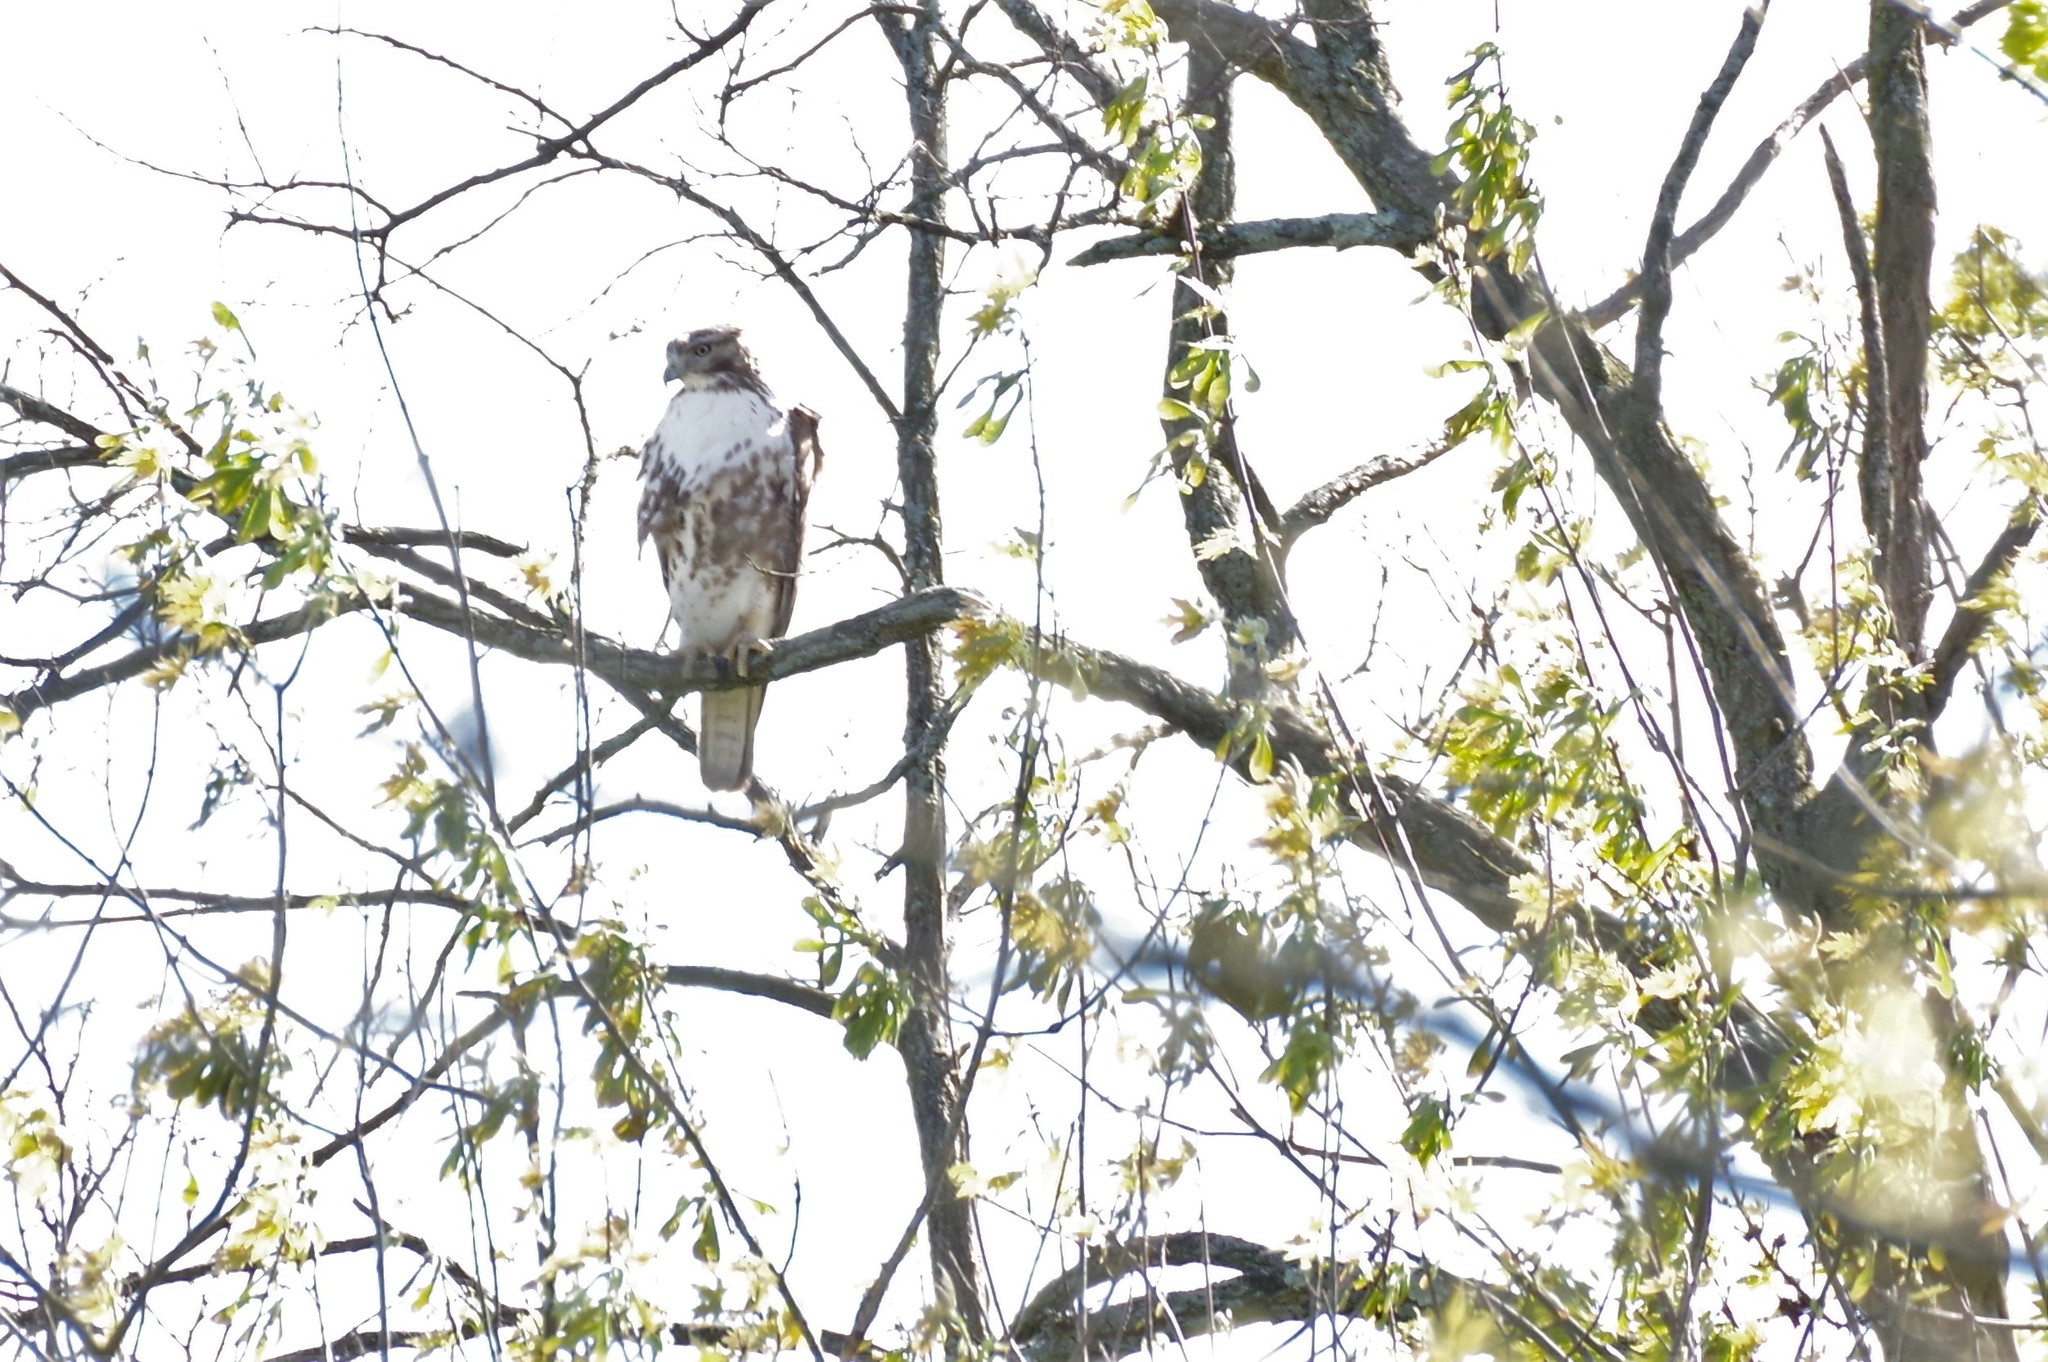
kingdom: Animalia
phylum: Chordata
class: Aves
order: Accipitriformes
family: Accipitridae
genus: Buteo
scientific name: Buteo jamaicensis
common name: Red-tailed hawk
